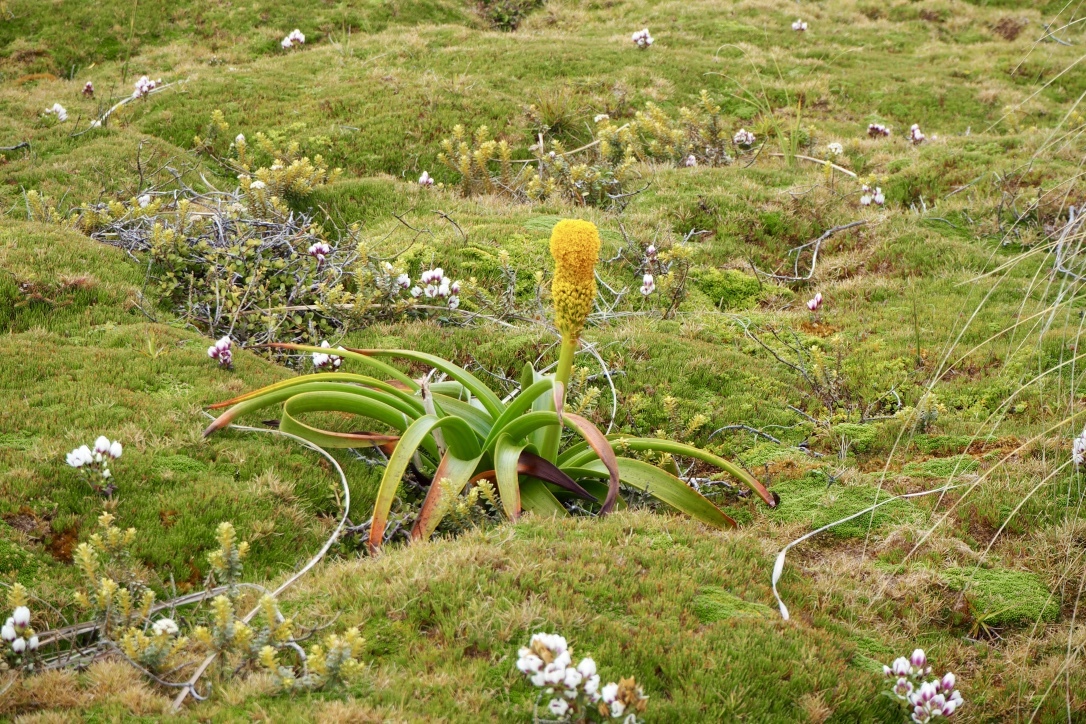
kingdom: Plantae
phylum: Tracheophyta
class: Liliopsida
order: Asparagales
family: Asphodelaceae
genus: Bulbinella
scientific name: Bulbinella rossii
